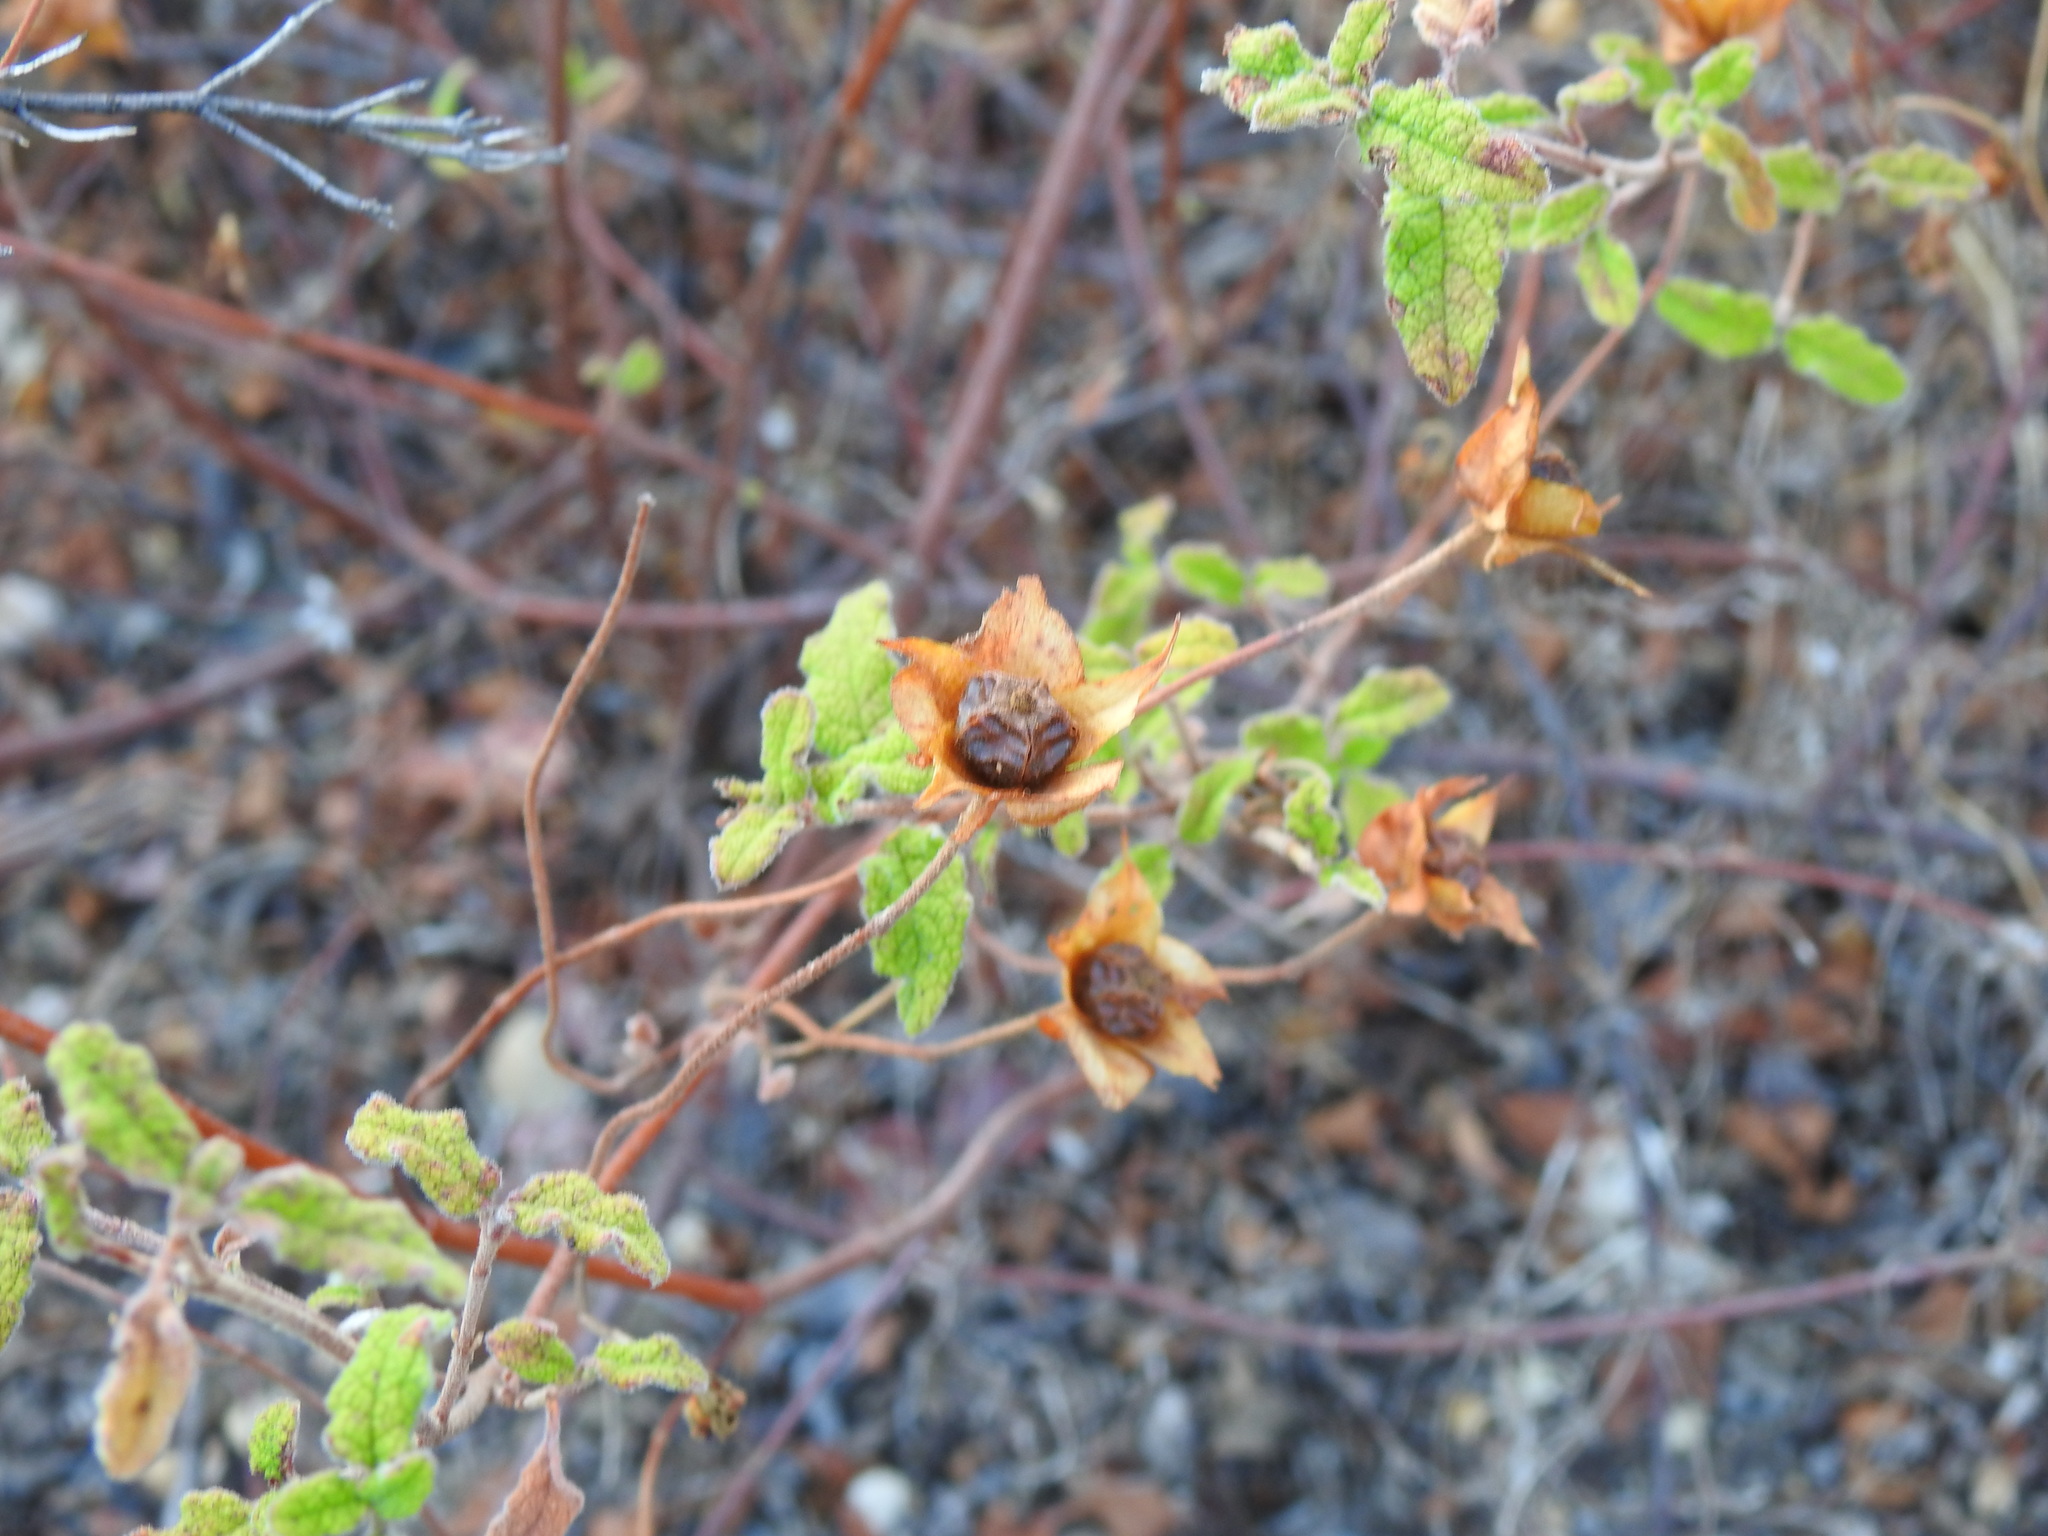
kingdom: Plantae
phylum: Tracheophyta
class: Magnoliopsida
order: Malvales
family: Cistaceae
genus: Cistus
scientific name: Cistus salviifolius
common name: Salvia cistus
